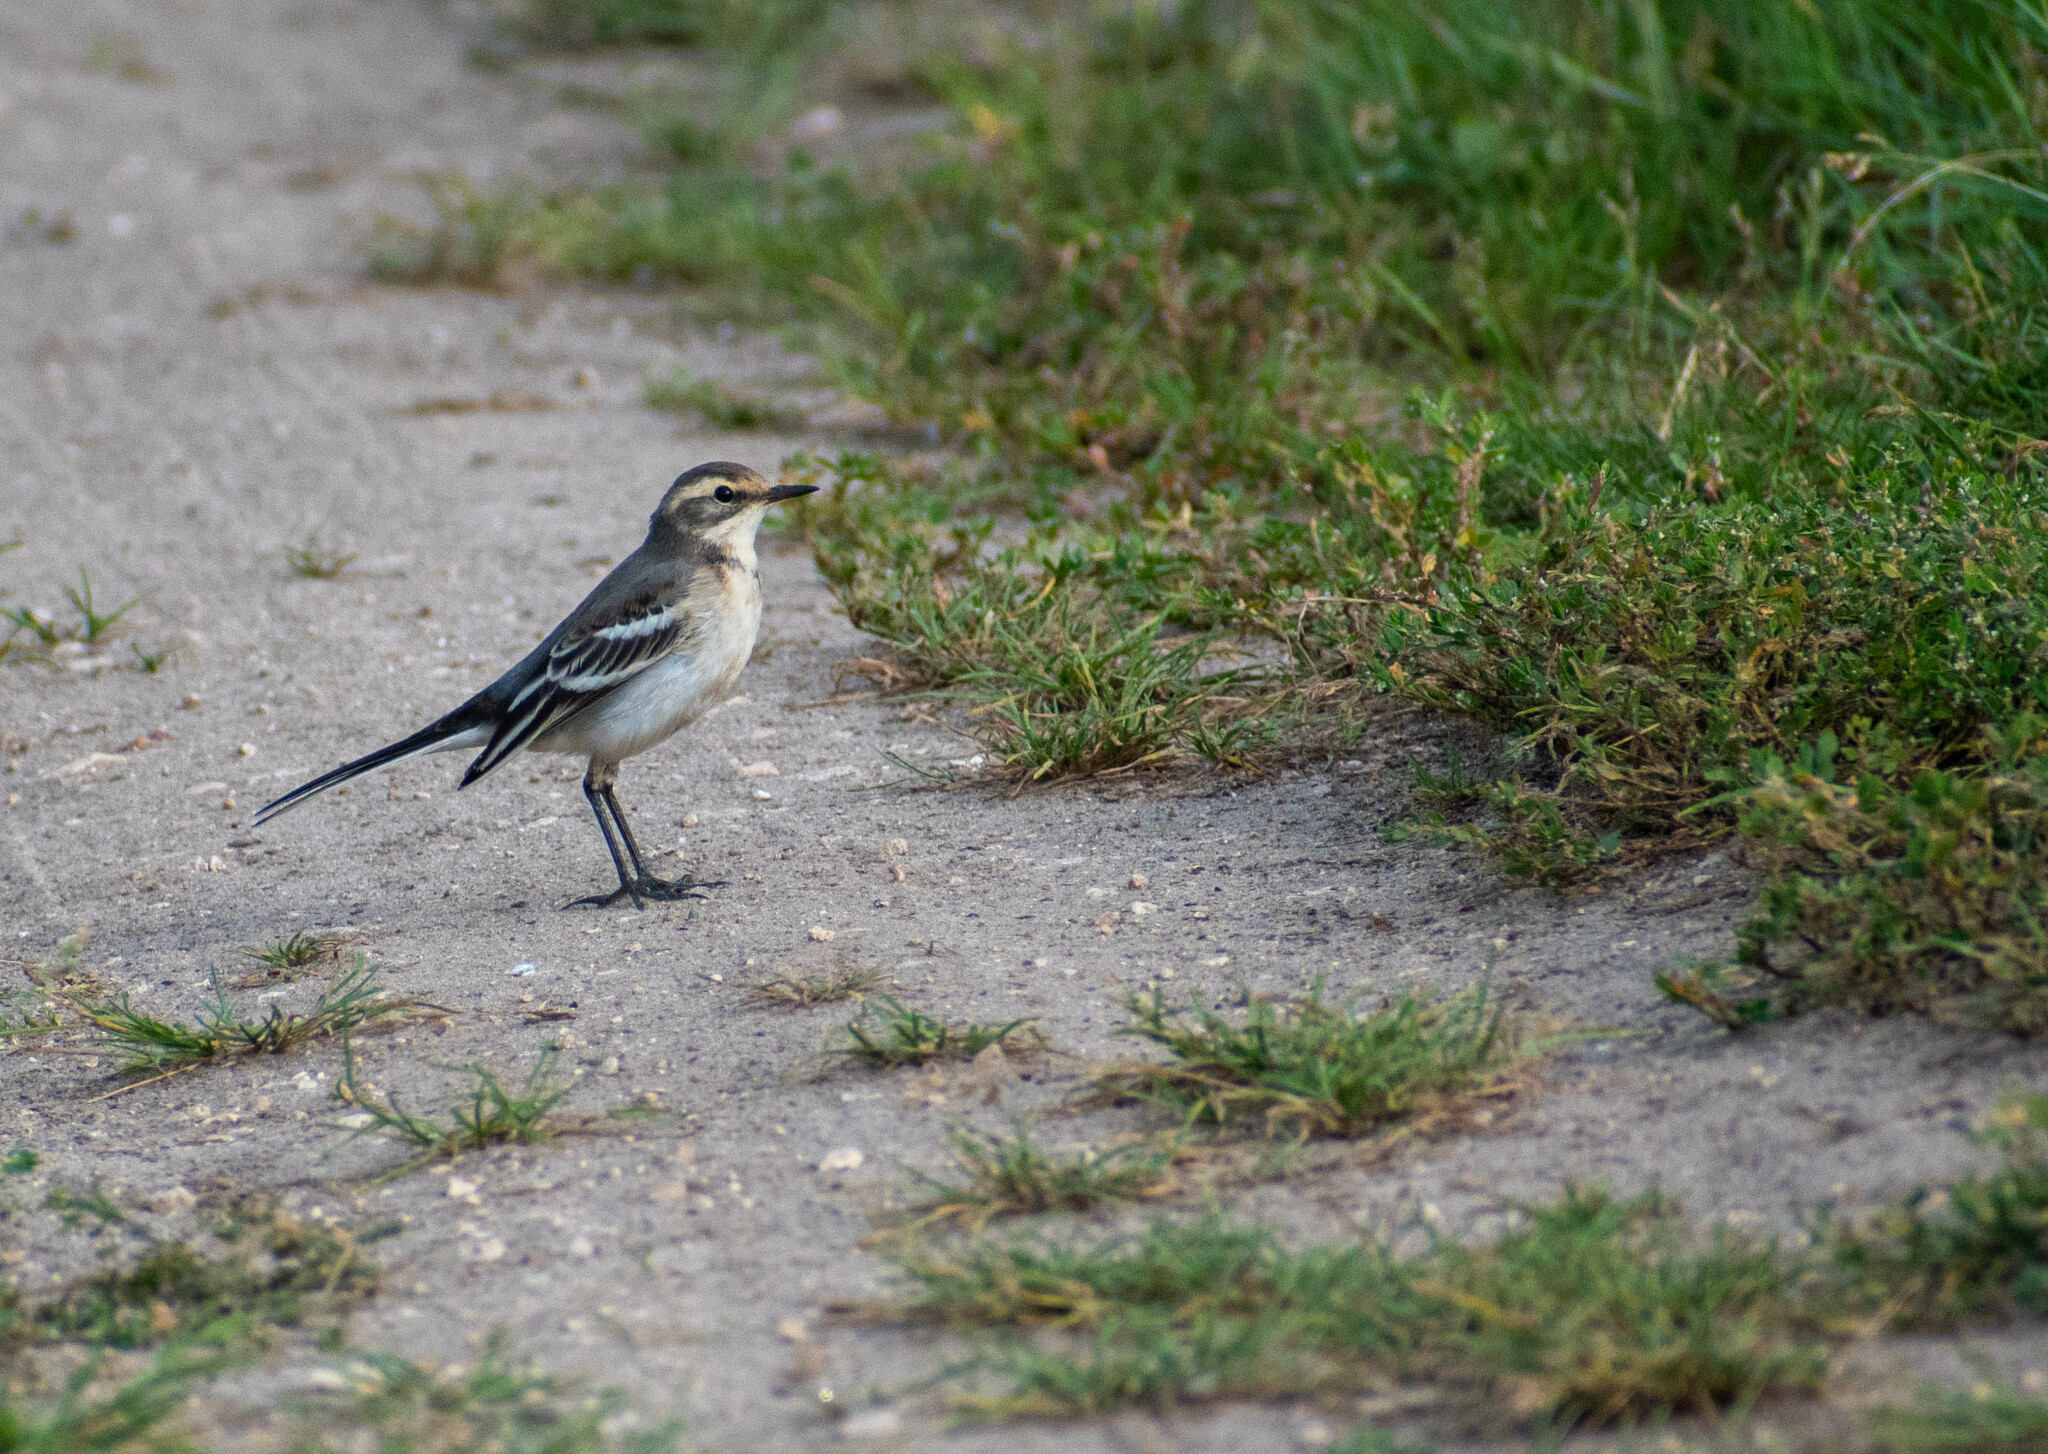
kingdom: Animalia
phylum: Chordata
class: Aves
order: Passeriformes
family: Motacillidae
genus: Motacilla
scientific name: Motacilla citreola
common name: Citrine wagtail
